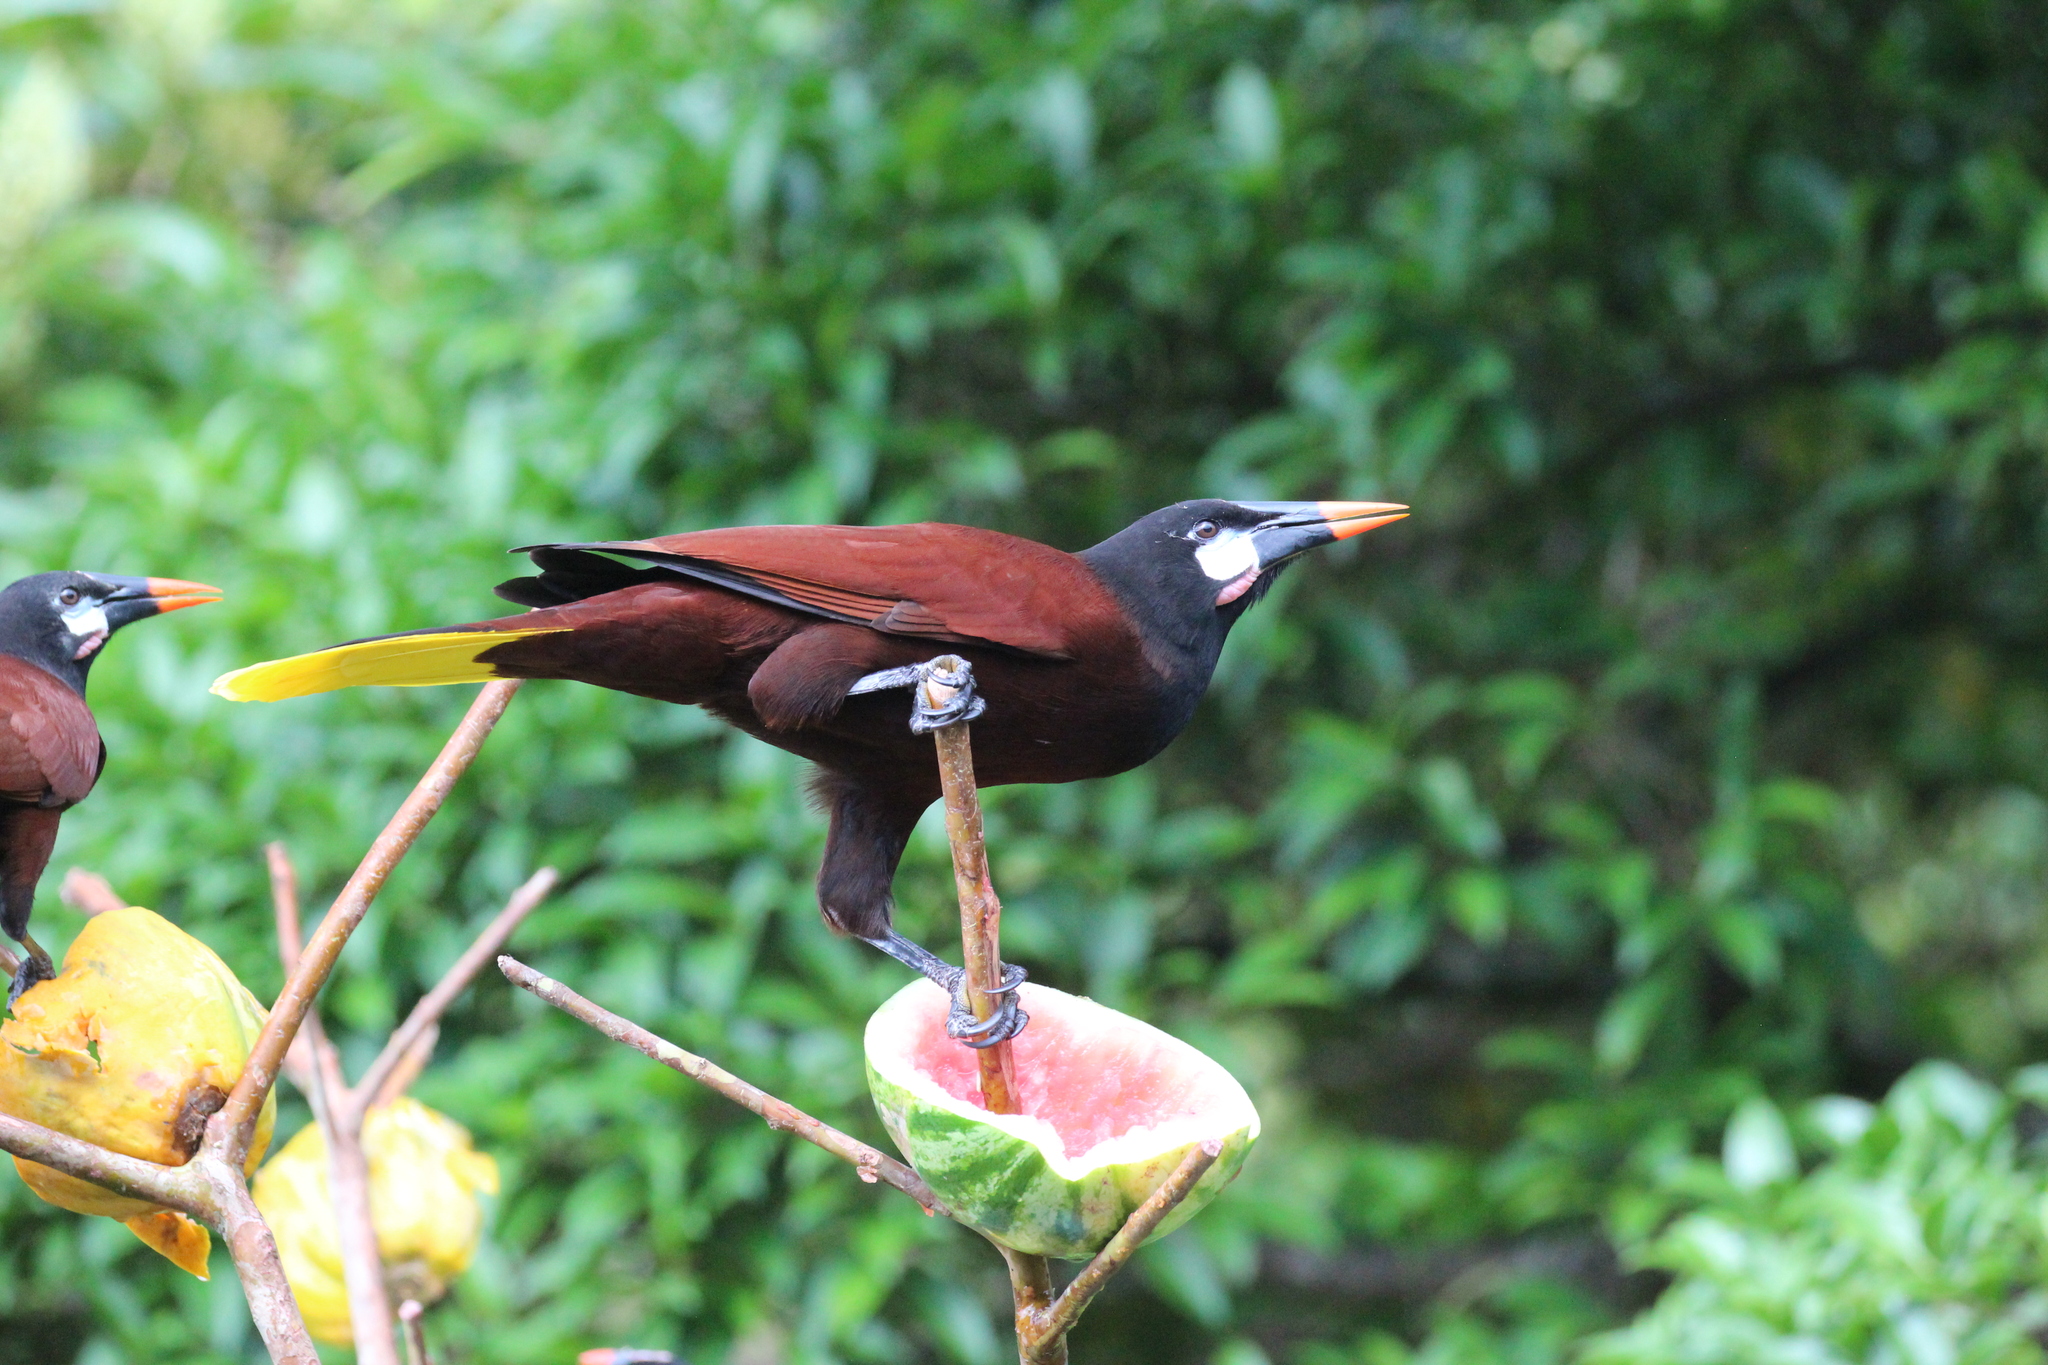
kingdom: Animalia
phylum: Chordata
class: Aves
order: Passeriformes
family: Icteridae
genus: Psarocolius
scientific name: Psarocolius montezuma
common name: Montezuma oropendola
